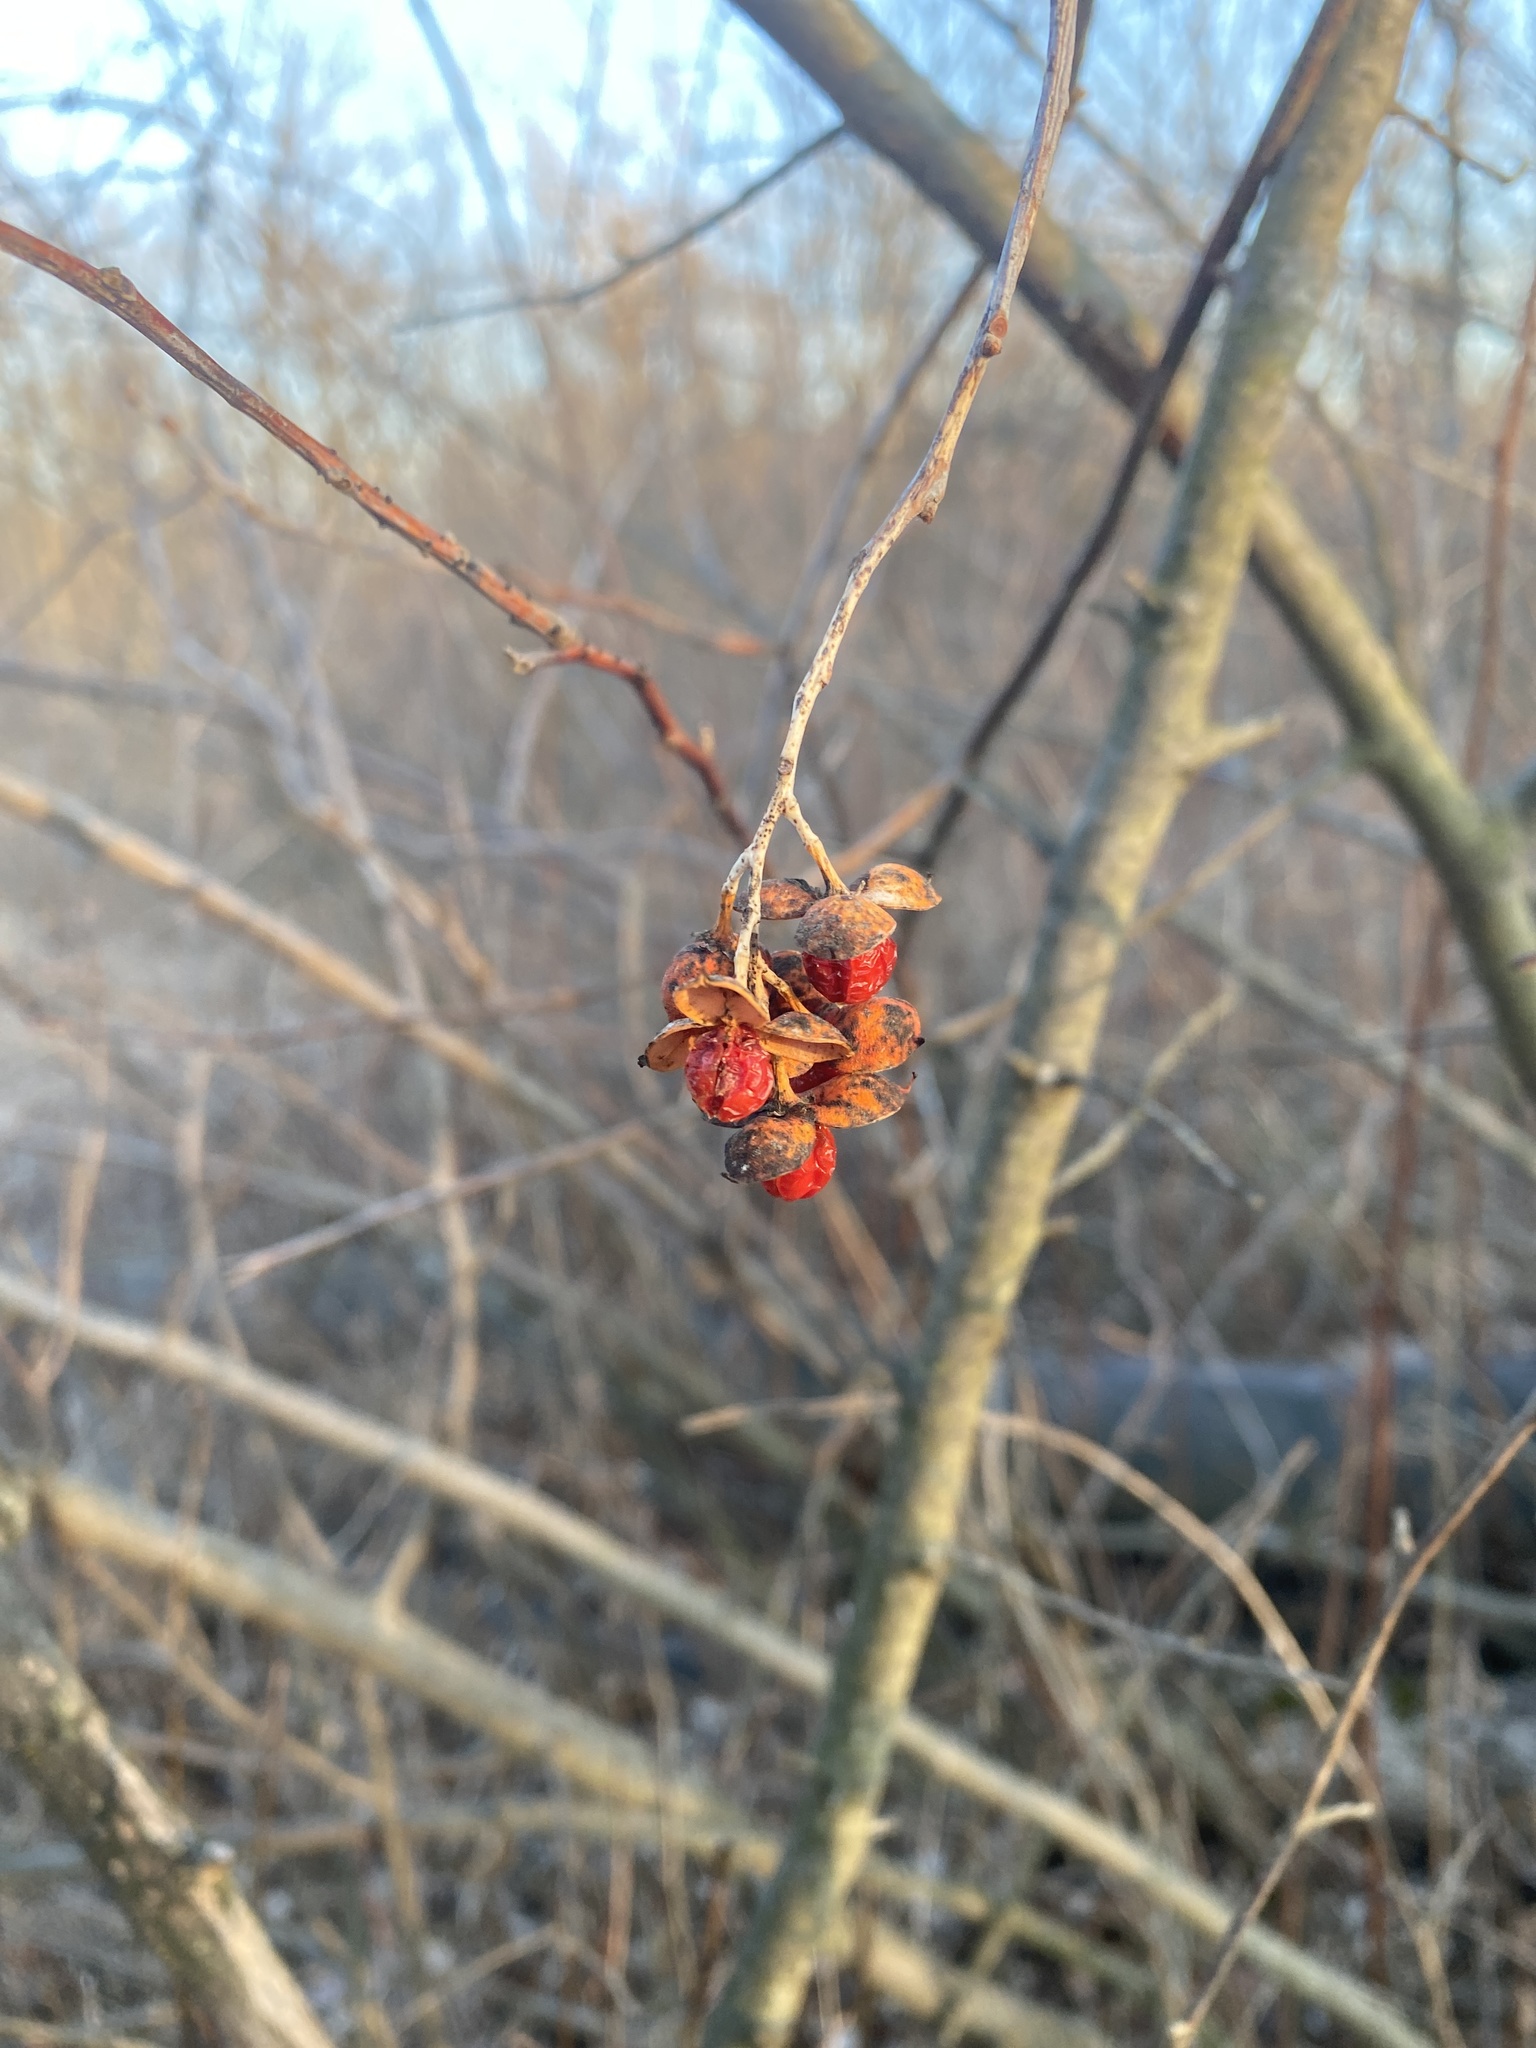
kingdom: Plantae
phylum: Tracheophyta
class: Magnoliopsida
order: Celastrales
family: Celastraceae
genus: Celastrus
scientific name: Celastrus scandens
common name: American bittersweet
